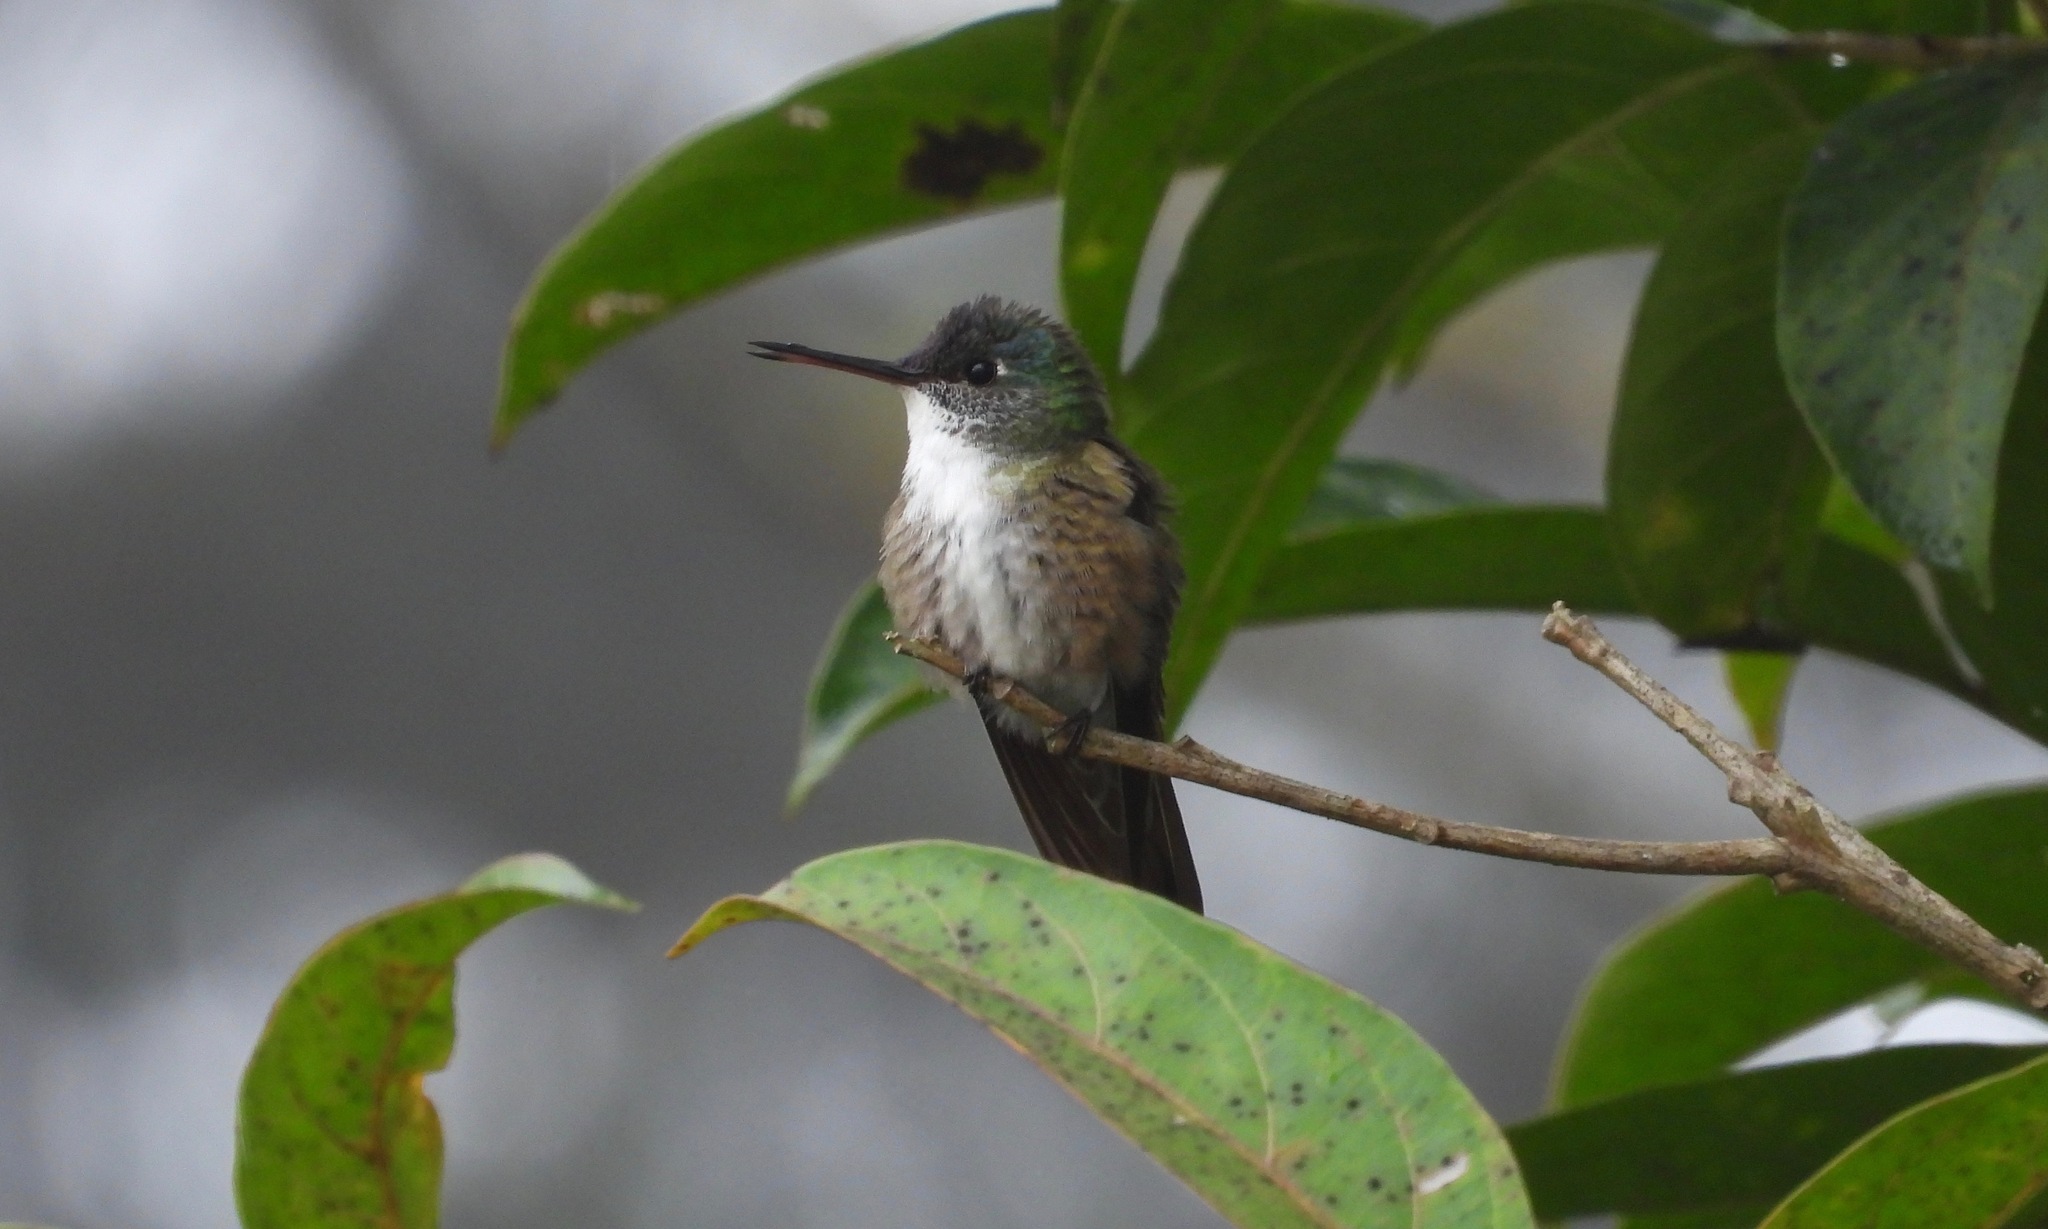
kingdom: Animalia
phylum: Chordata
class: Aves
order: Apodiformes
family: Trochilidae
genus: Saucerottia
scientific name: Saucerottia cyanocephala
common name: Azure-crowned hummingbird
